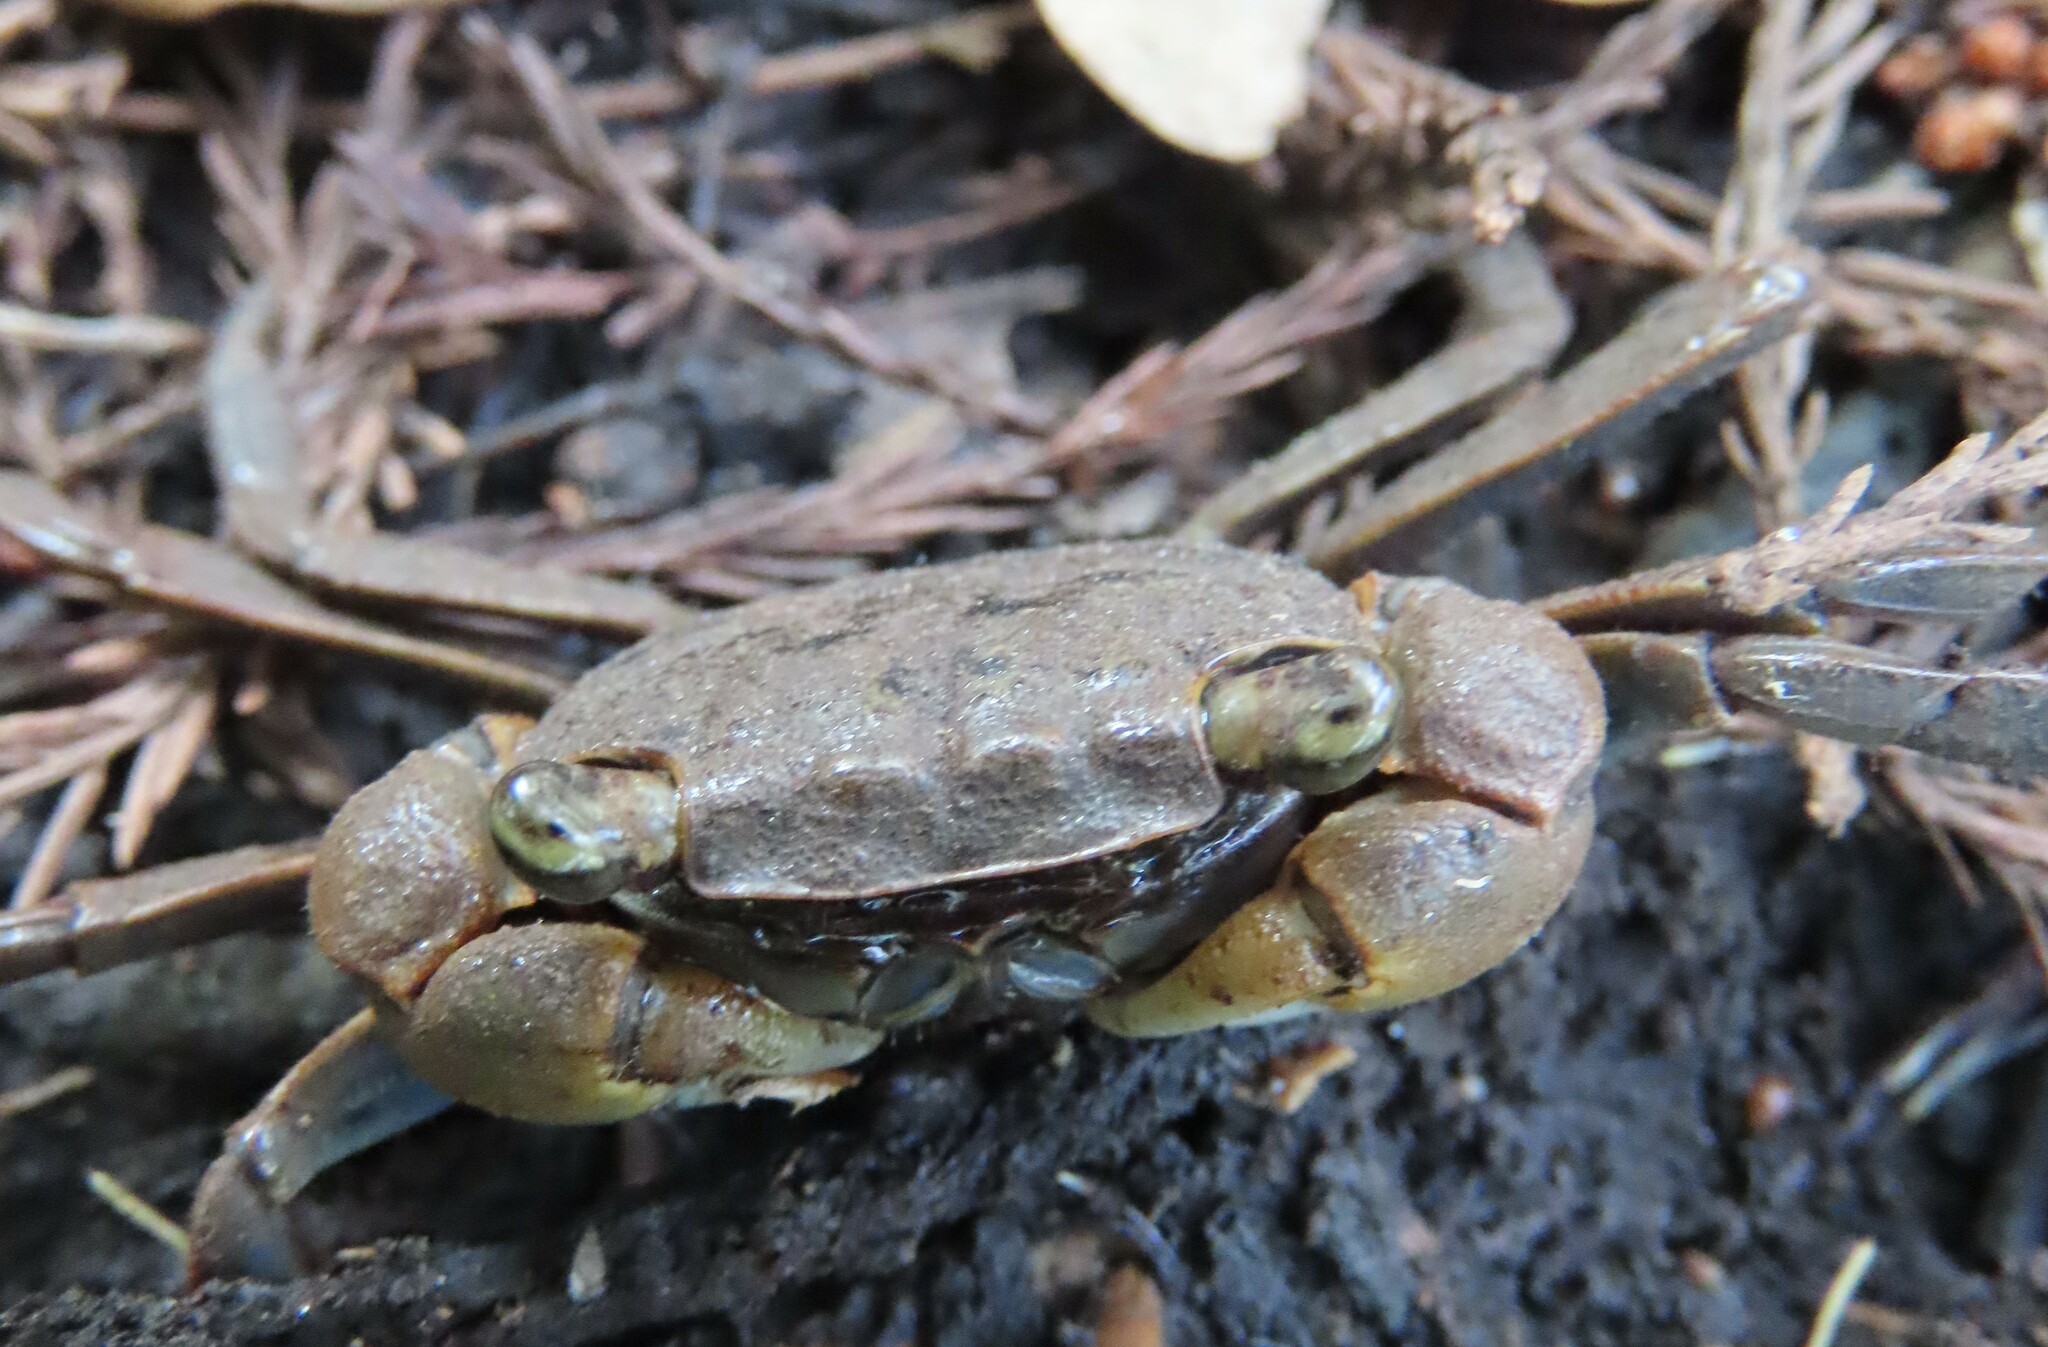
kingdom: Animalia
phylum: Arthropoda
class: Malacostraca
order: Decapoda
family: Sesarmidae
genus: Armases
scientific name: Armases cinereum
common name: Squareback marsh crab
